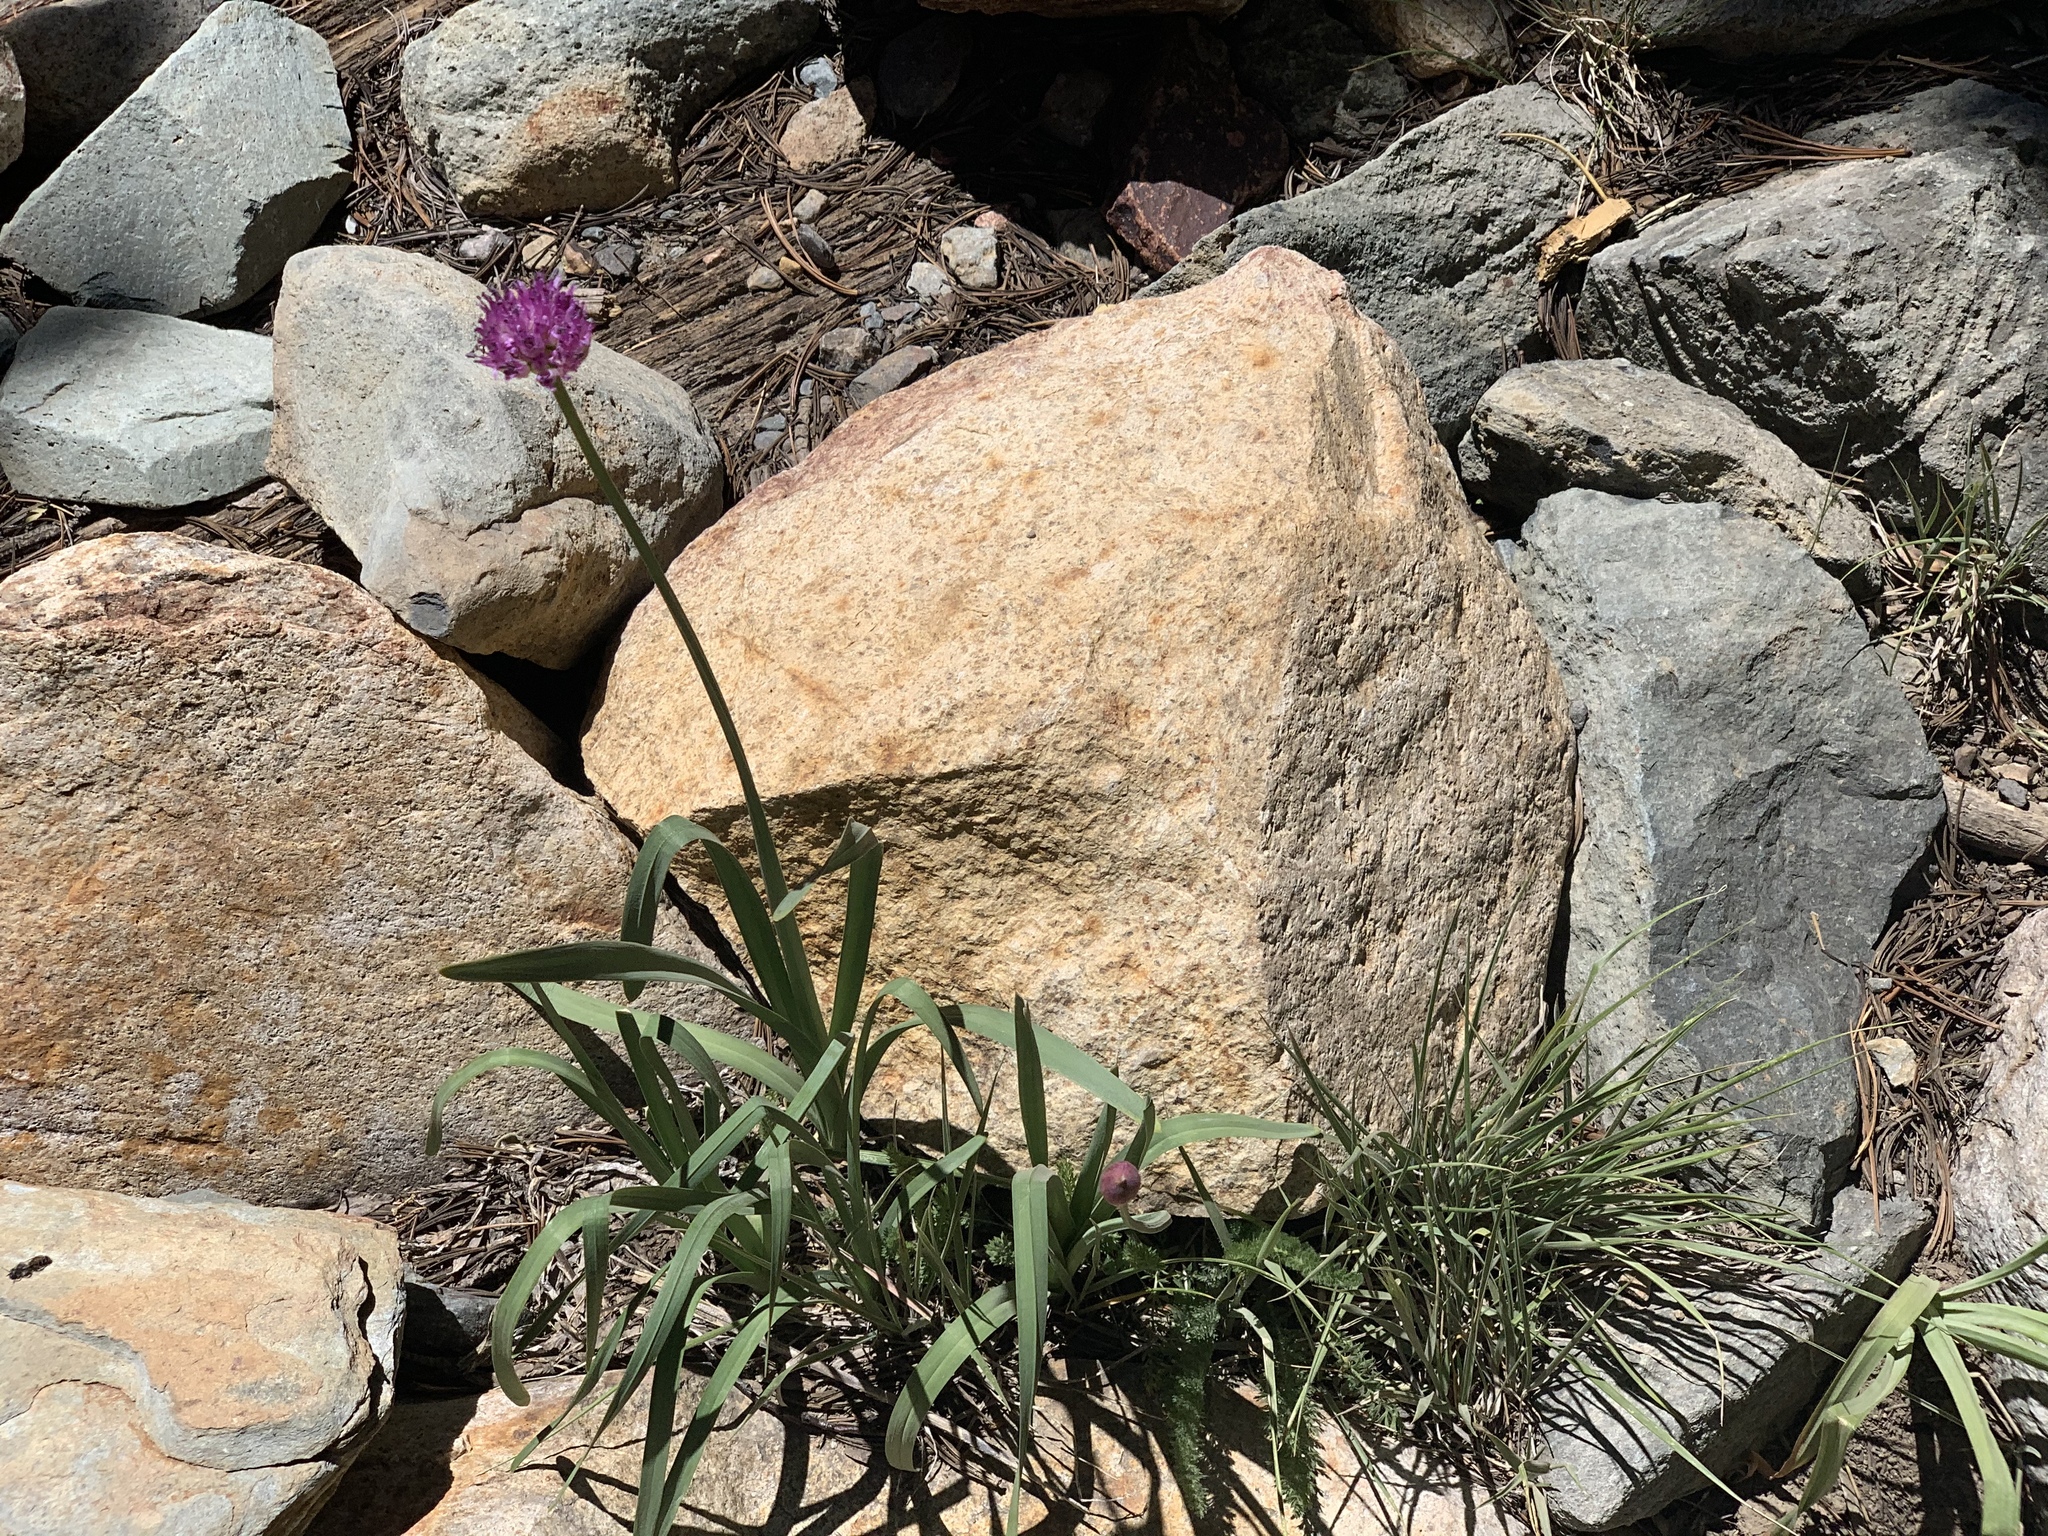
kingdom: Plantae
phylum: Tracheophyta
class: Liliopsida
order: Asparagales
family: Amaryllidaceae
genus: Allium
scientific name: Allium validum
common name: Pacific mountain onion
